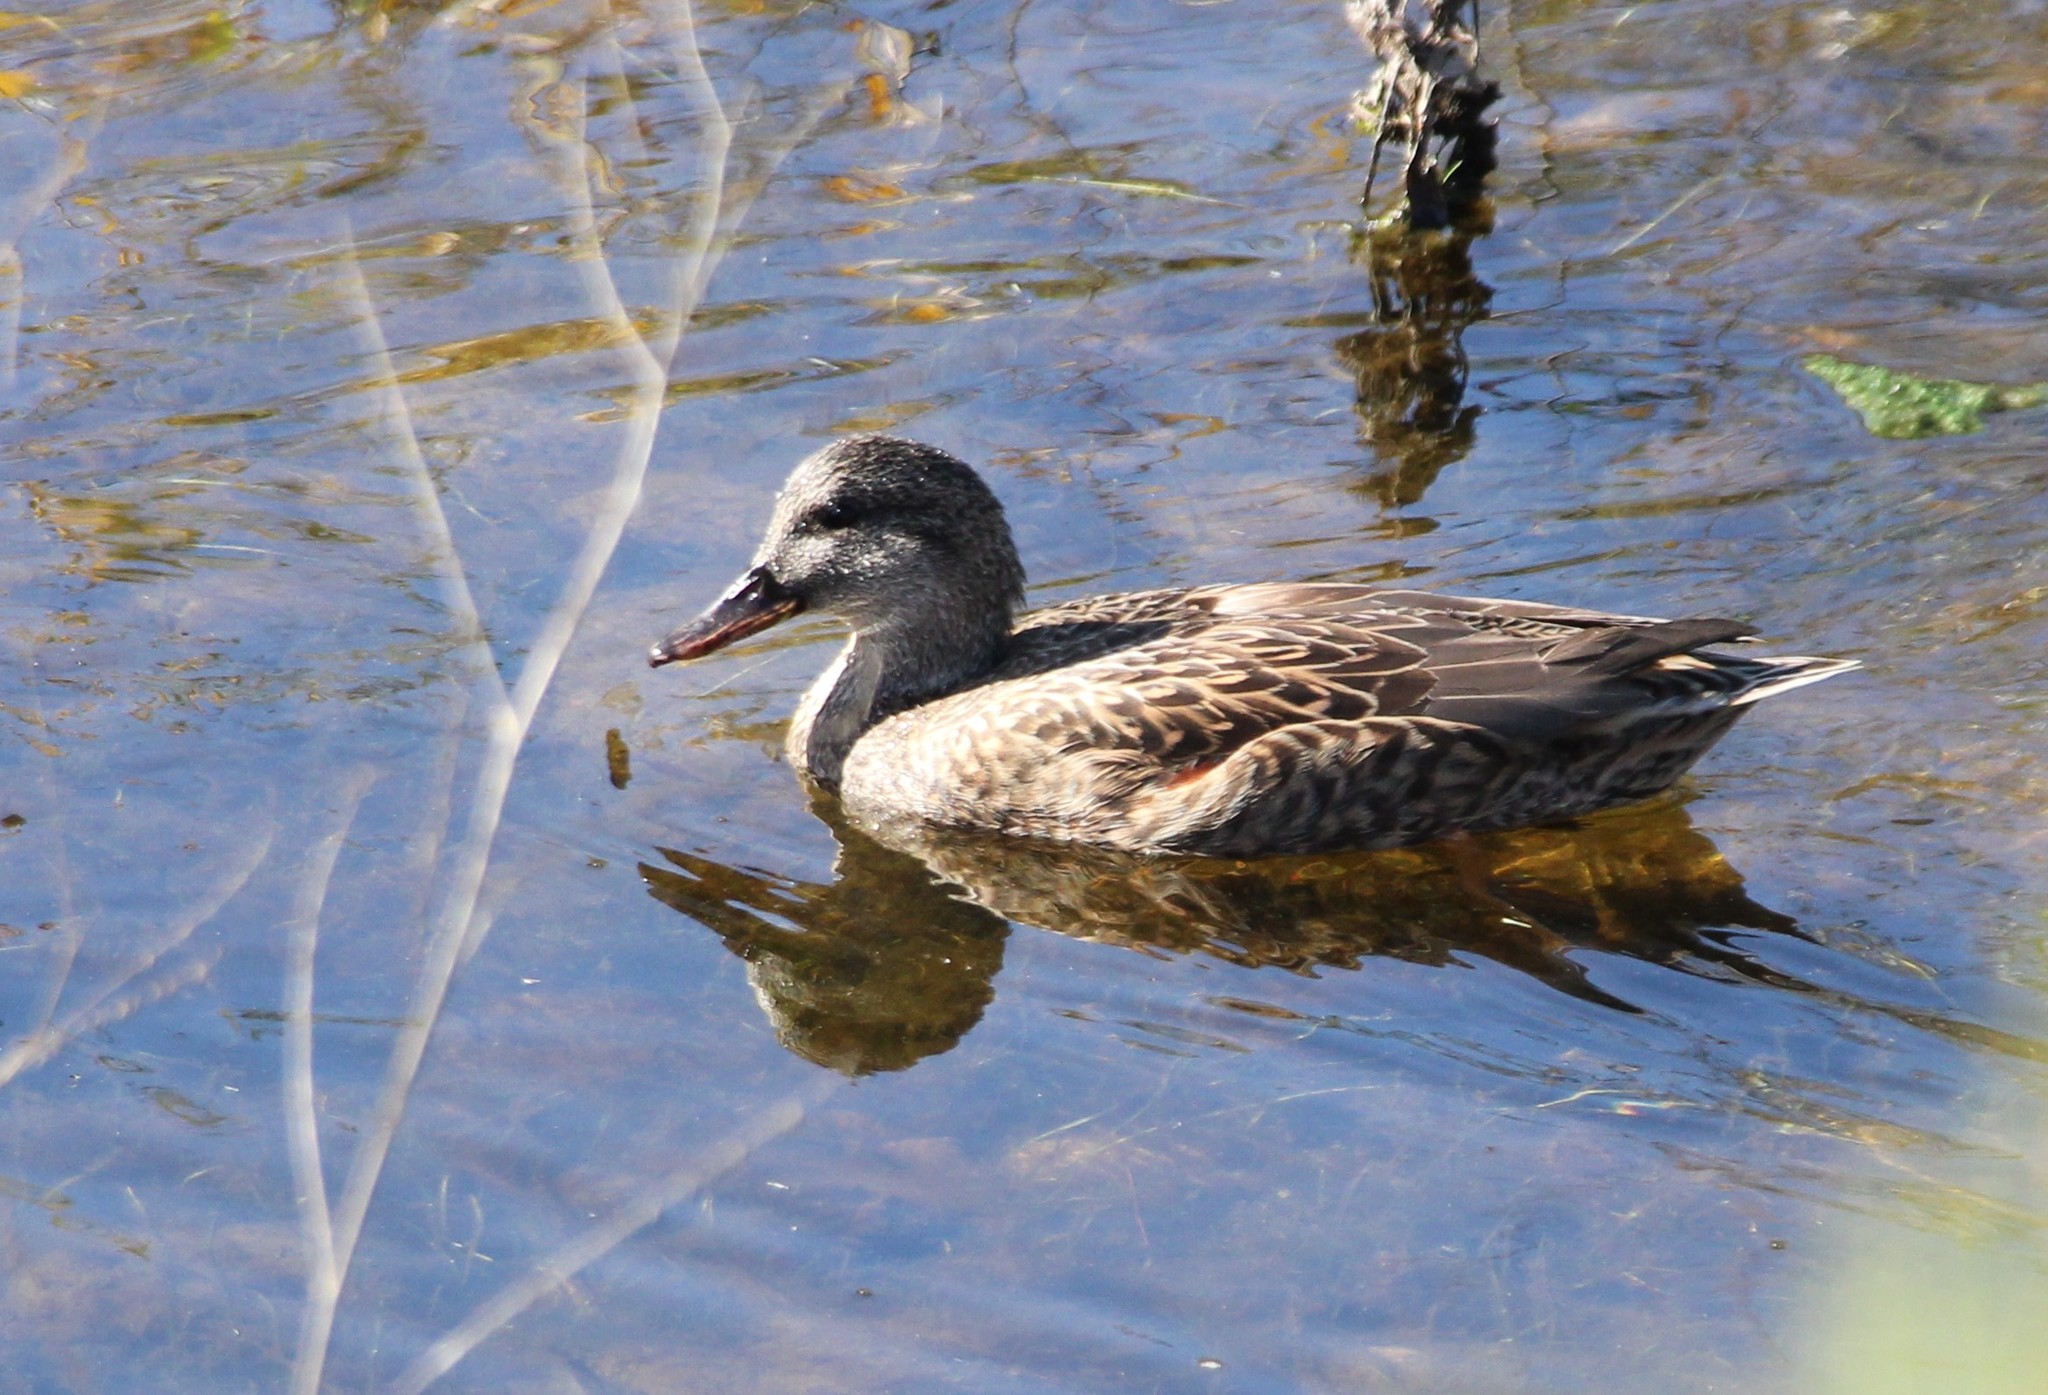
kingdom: Animalia
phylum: Chordata
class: Aves
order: Anseriformes
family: Anatidae
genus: Mareca
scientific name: Mareca strepera
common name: Gadwall
